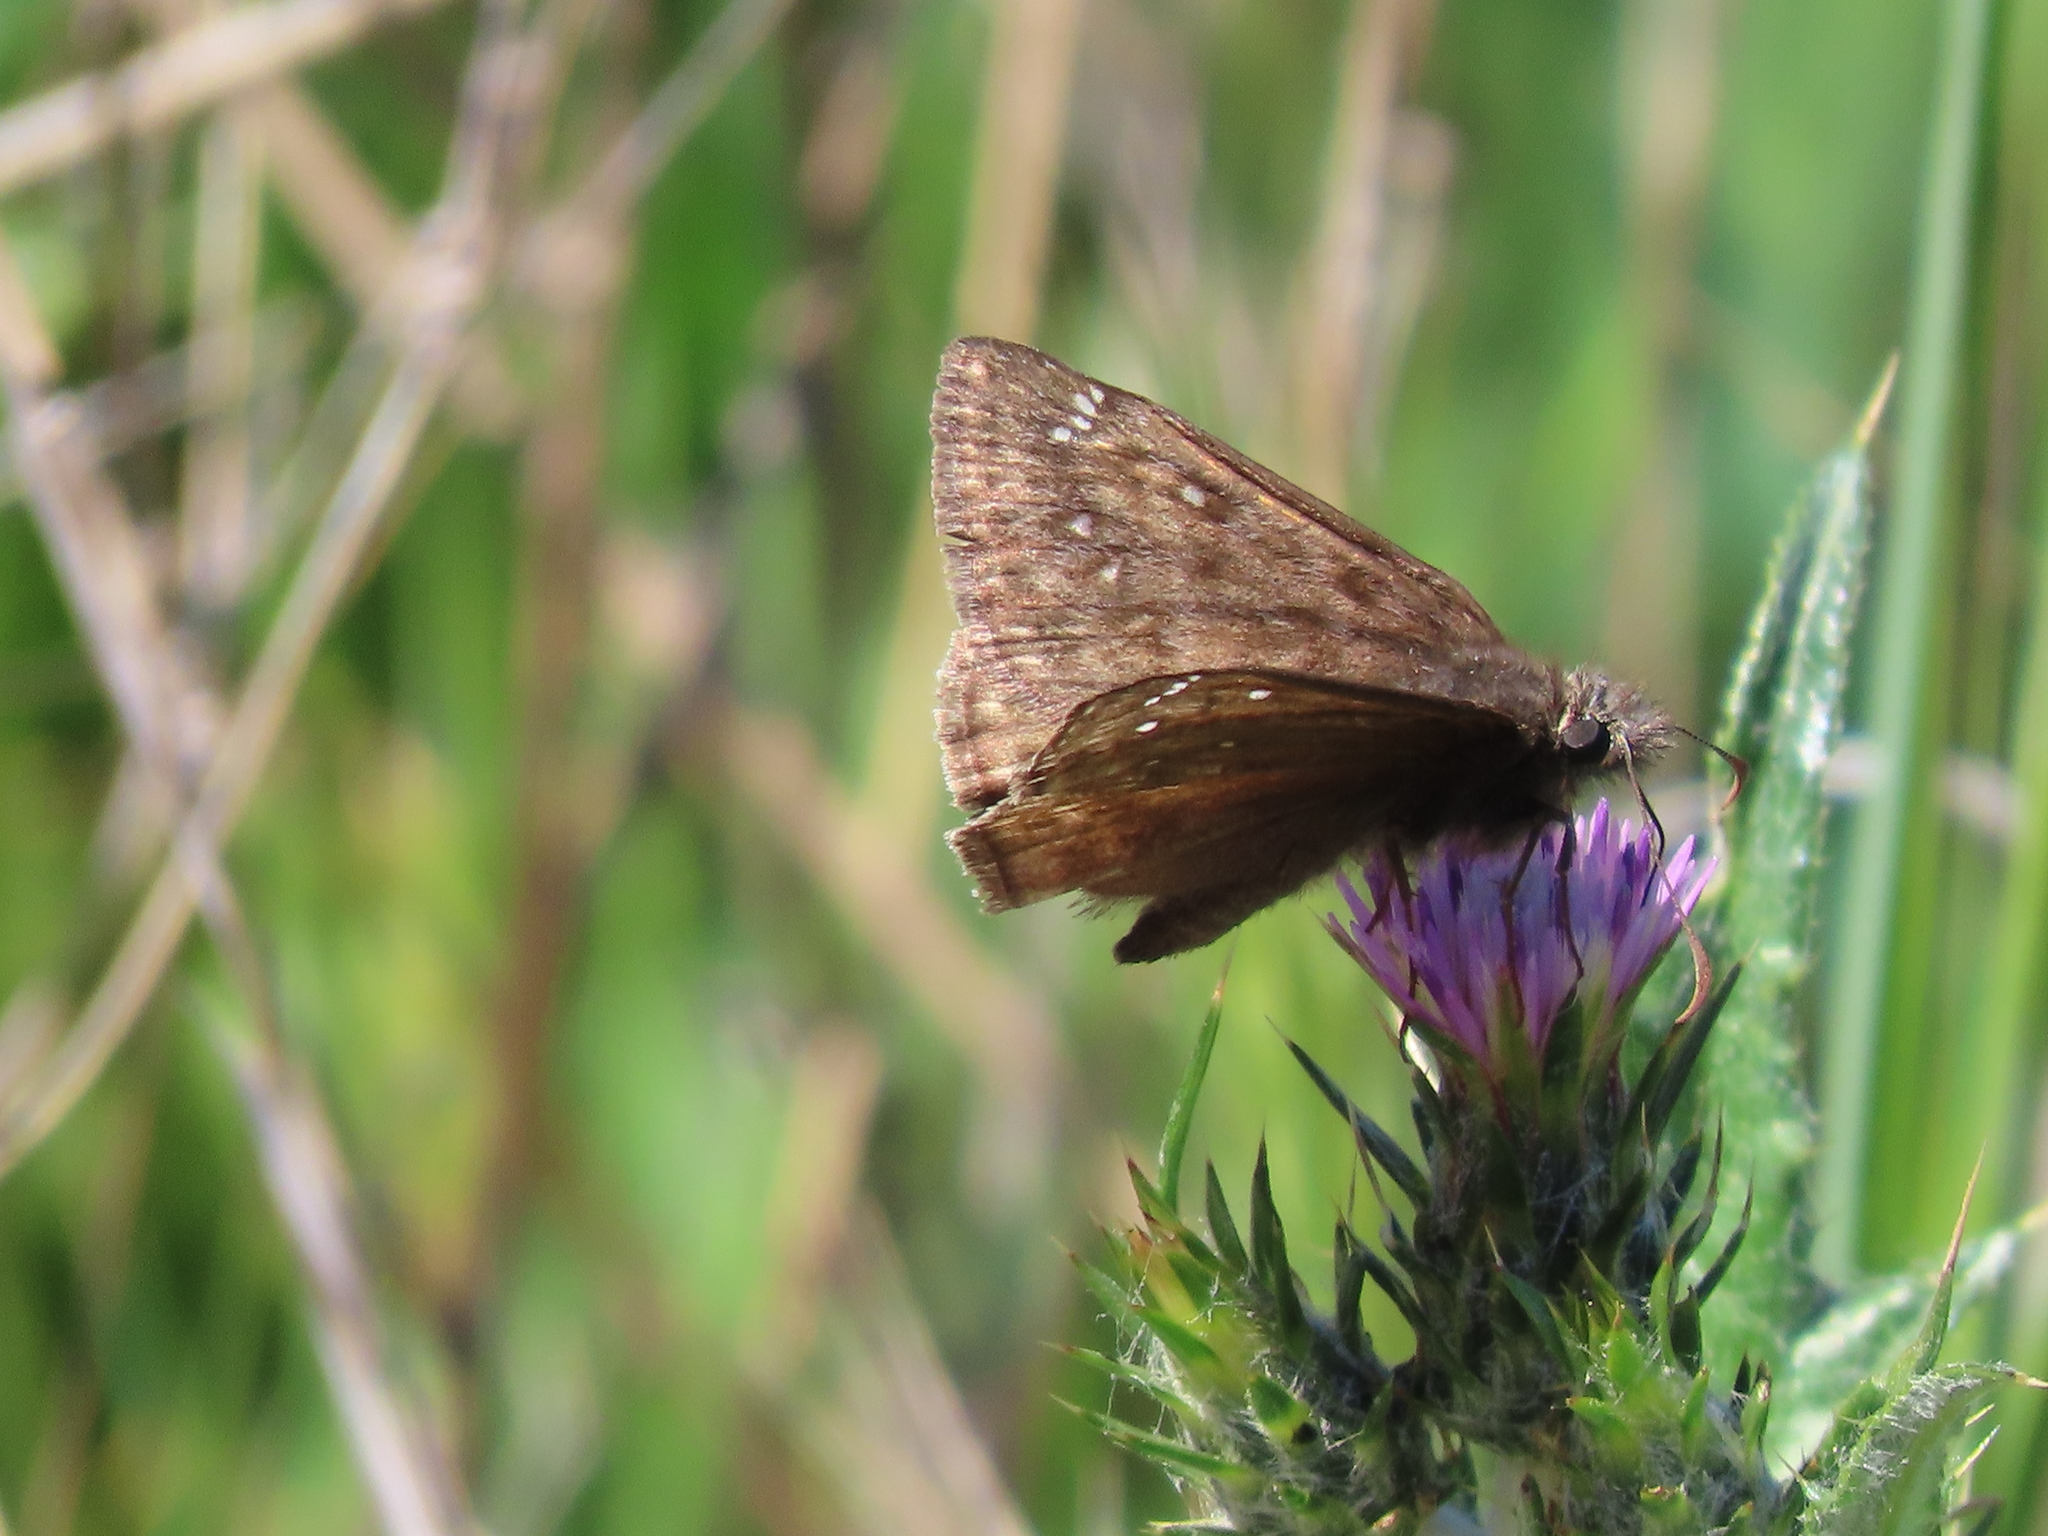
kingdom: Animalia
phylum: Arthropoda
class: Insecta
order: Lepidoptera
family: Hesperiidae
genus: Erynnis
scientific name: Erynnis propertius
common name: Propertius duskywing
